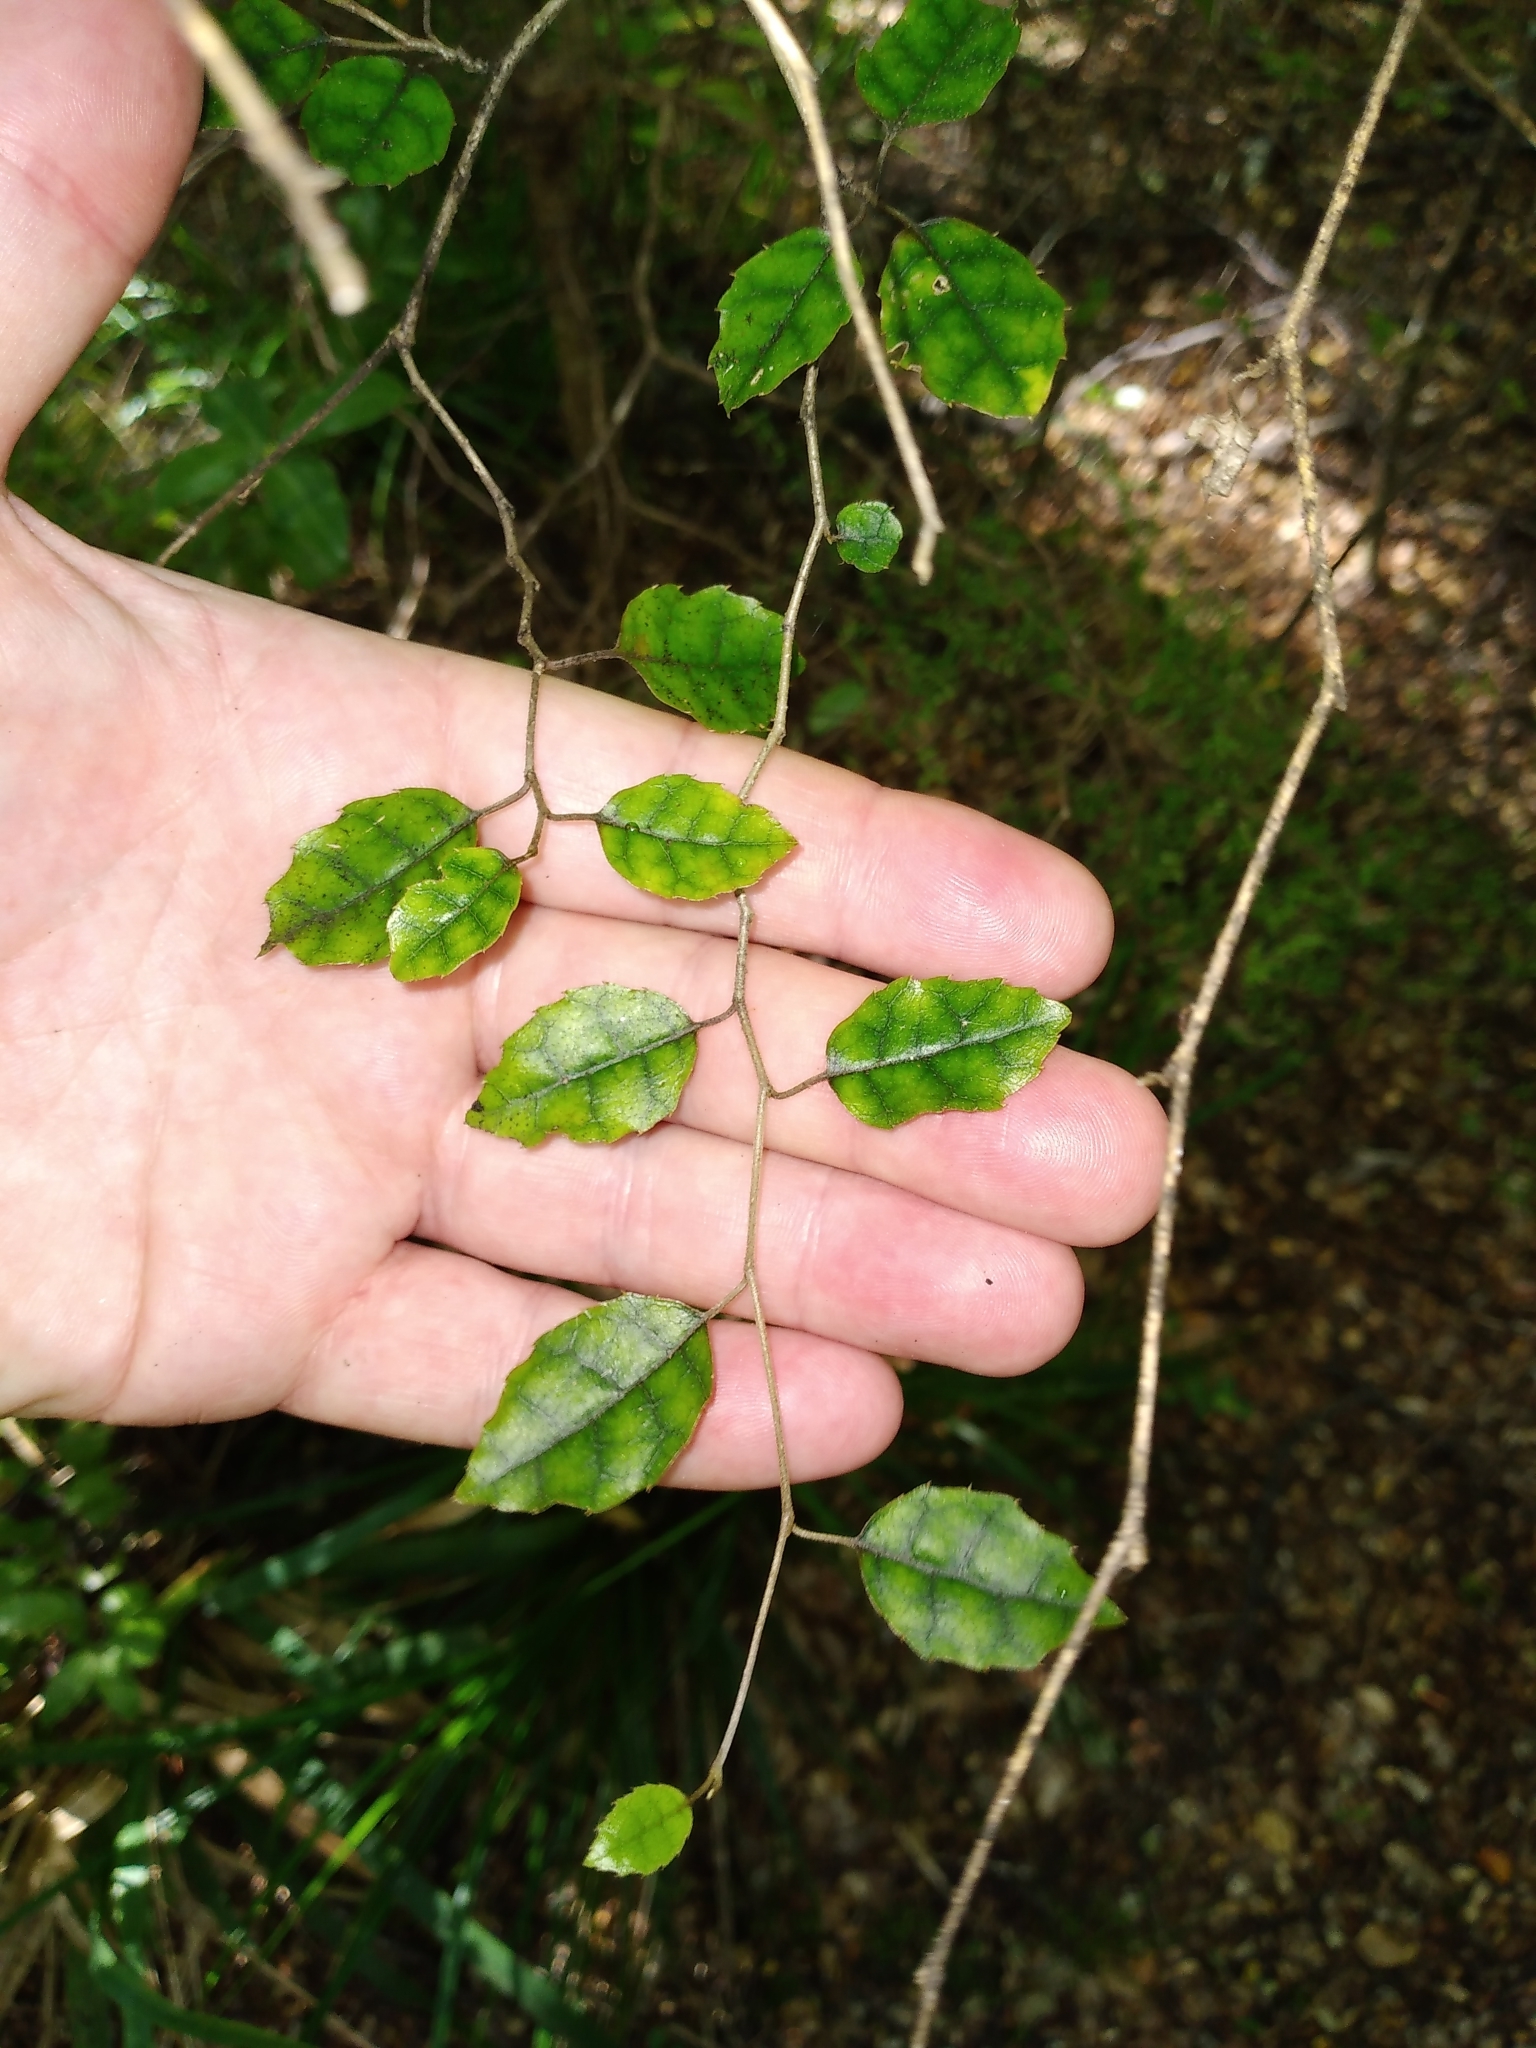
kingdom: Plantae
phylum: Tracheophyta
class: Magnoliopsida
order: Asterales
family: Rousseaceae
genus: Carpodetus
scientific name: Carpodetus serratus
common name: White mapau
